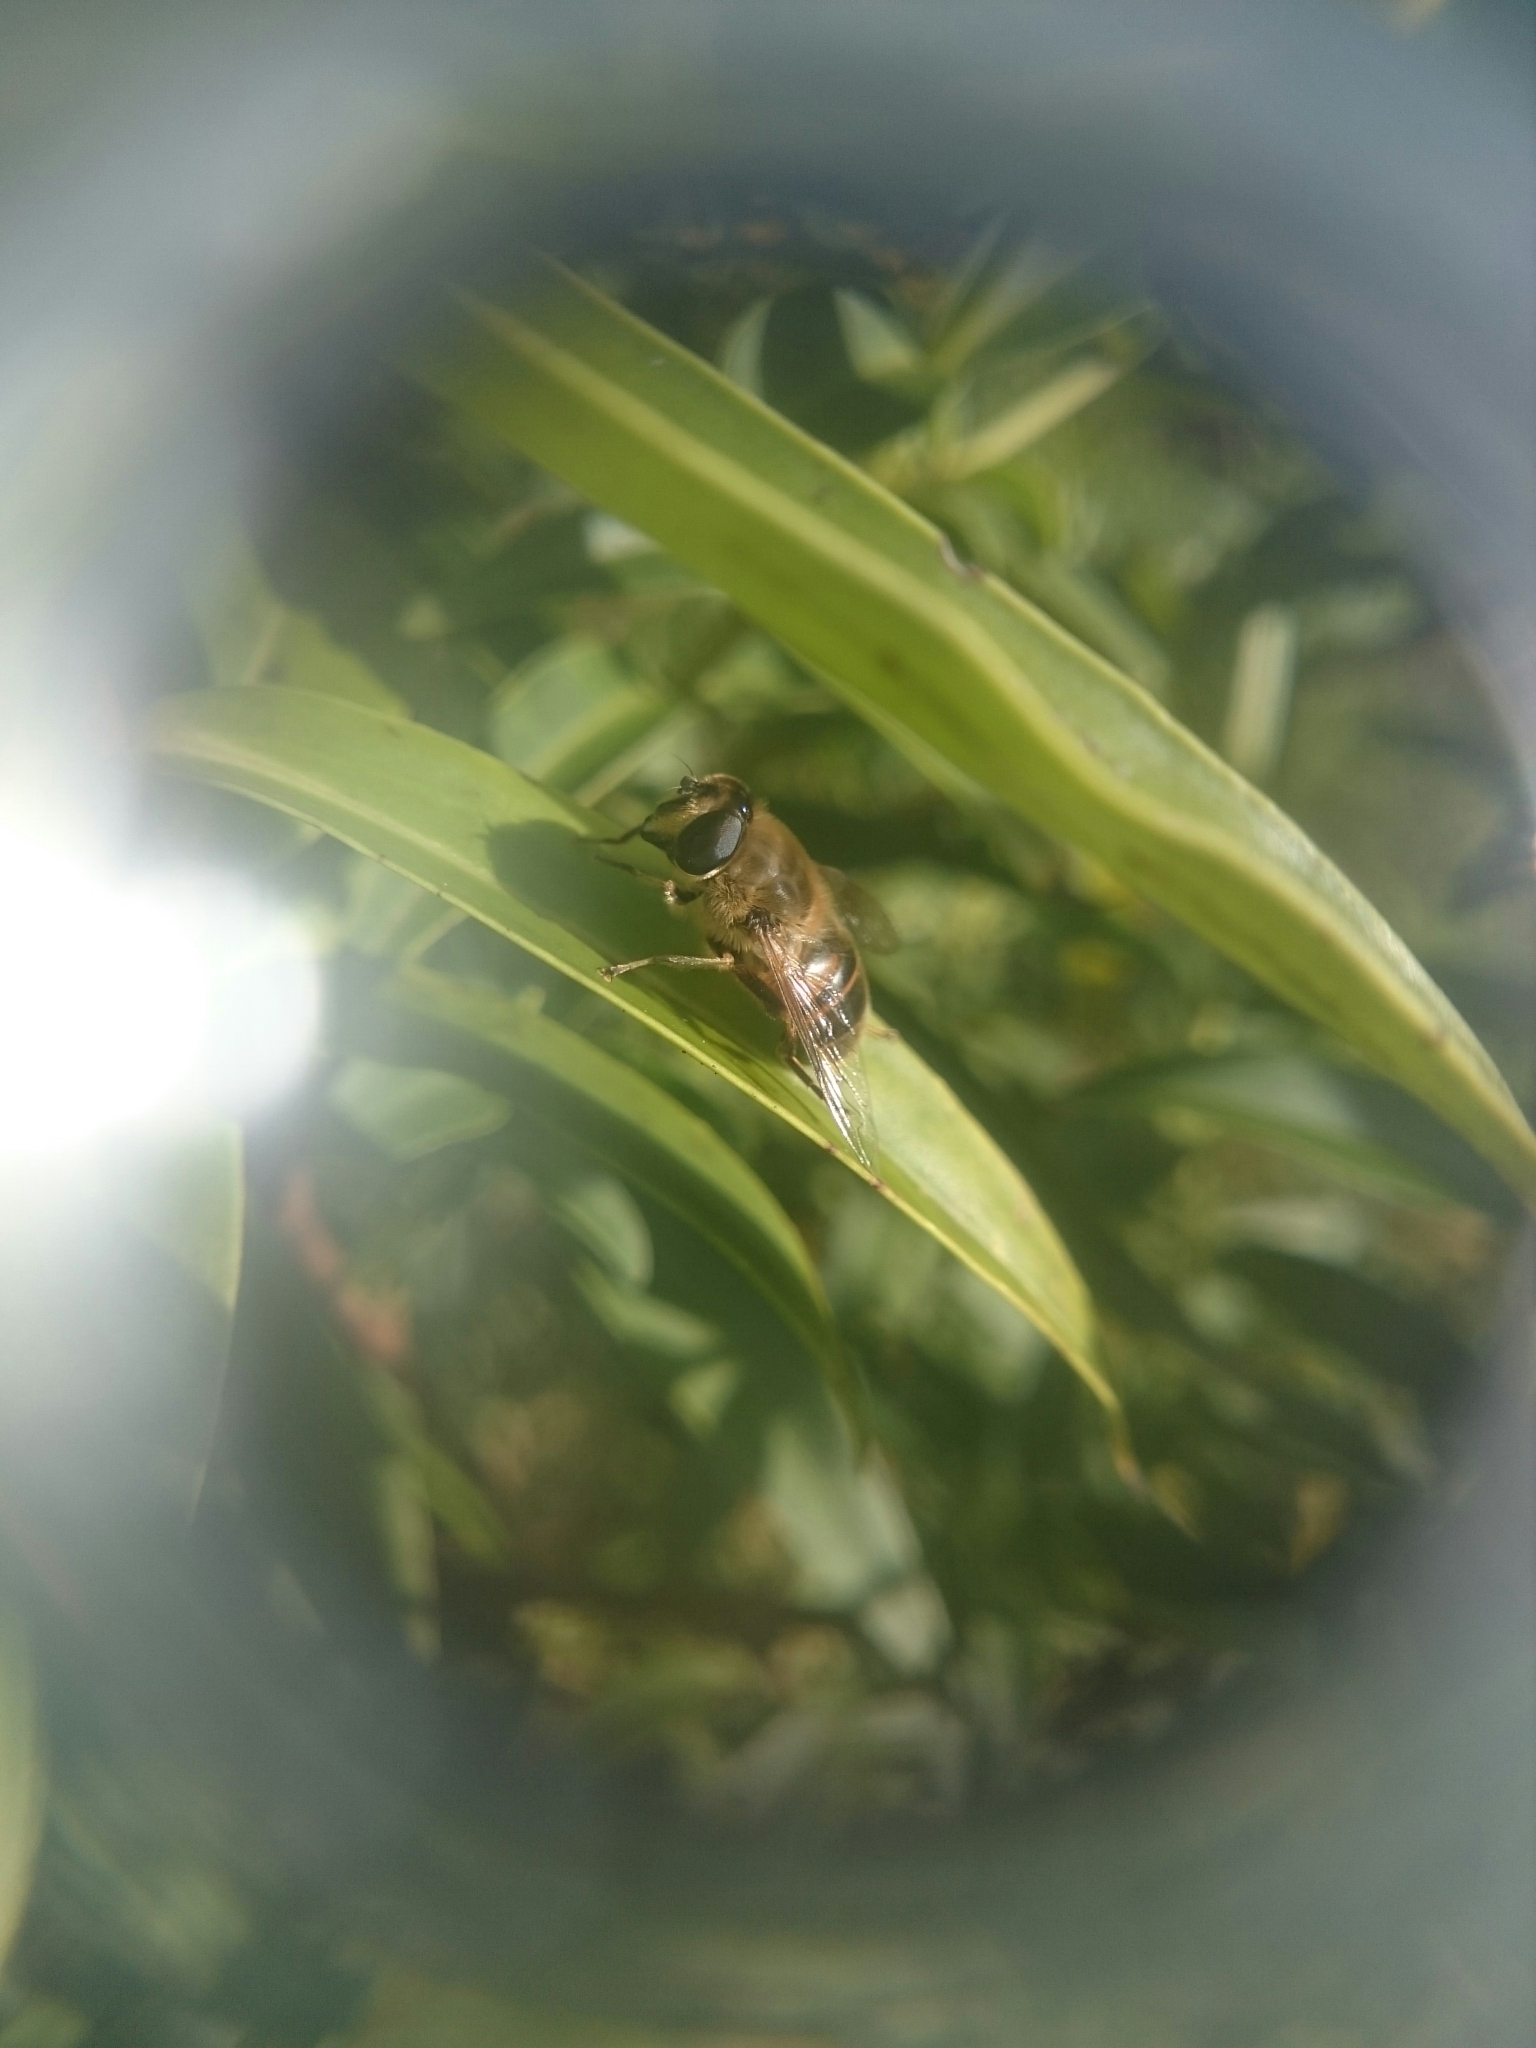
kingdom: Animalia
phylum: Arthropoda
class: Insecta
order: Diptera
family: Syrphidae
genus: Eristalis
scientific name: Eristalis tenax
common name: Drone fly
